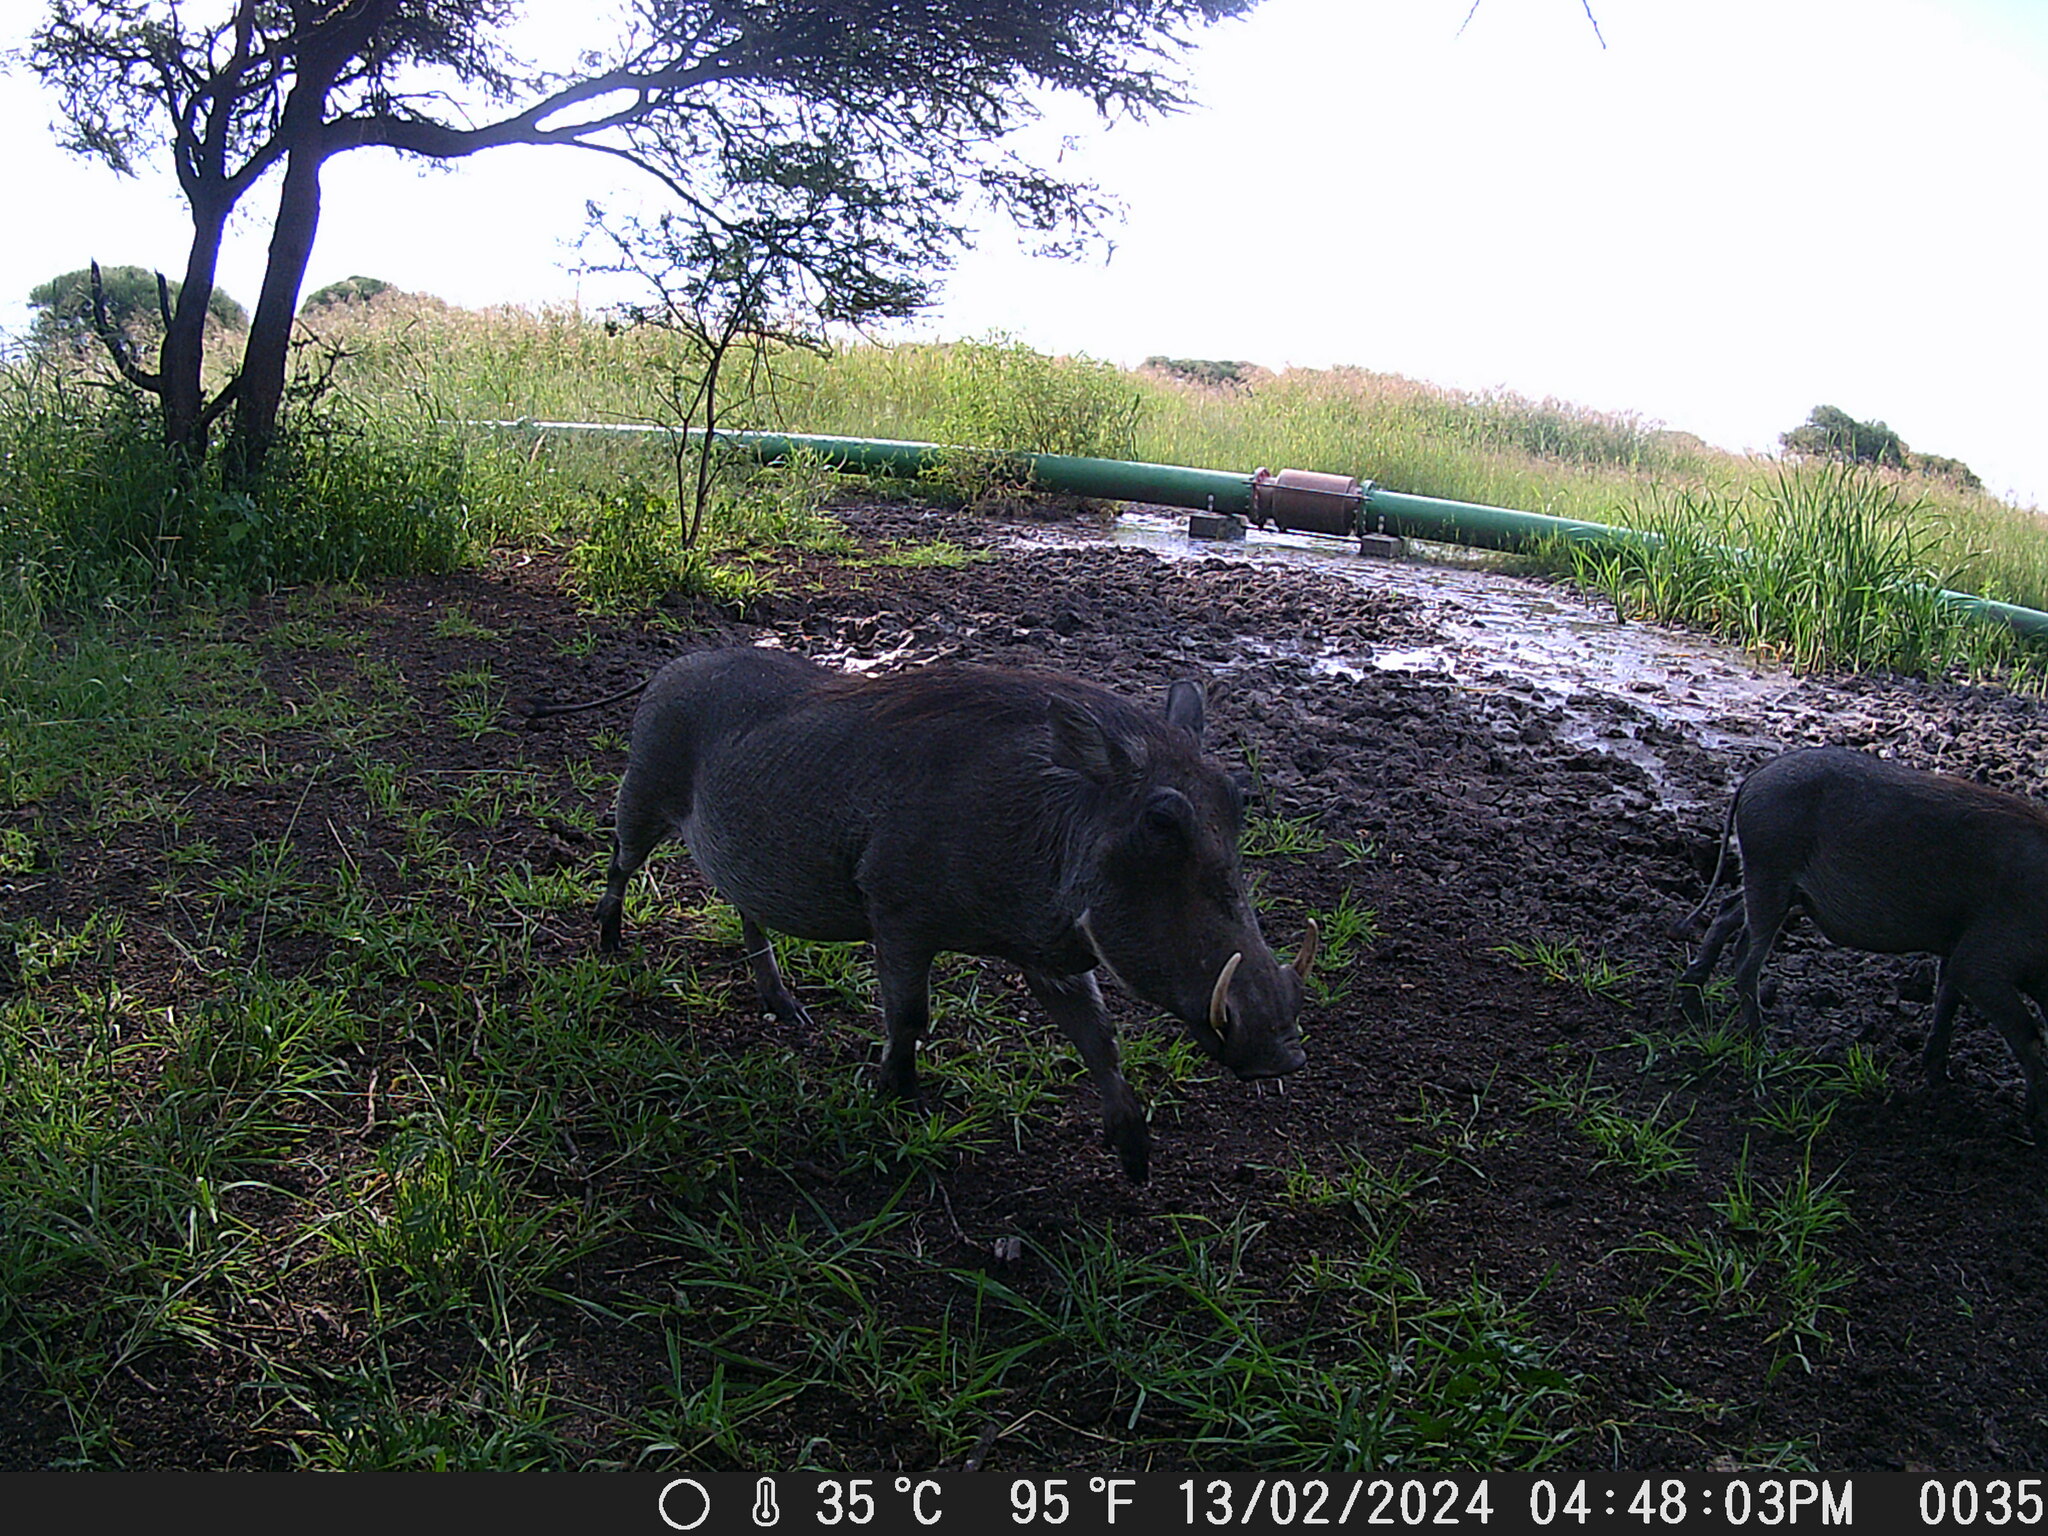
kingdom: Animalia
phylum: Chordata
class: Mammalia
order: Artiodactyla
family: Suidae
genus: Phacochoerus
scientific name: Phacochoerus africanus
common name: Common warthog
